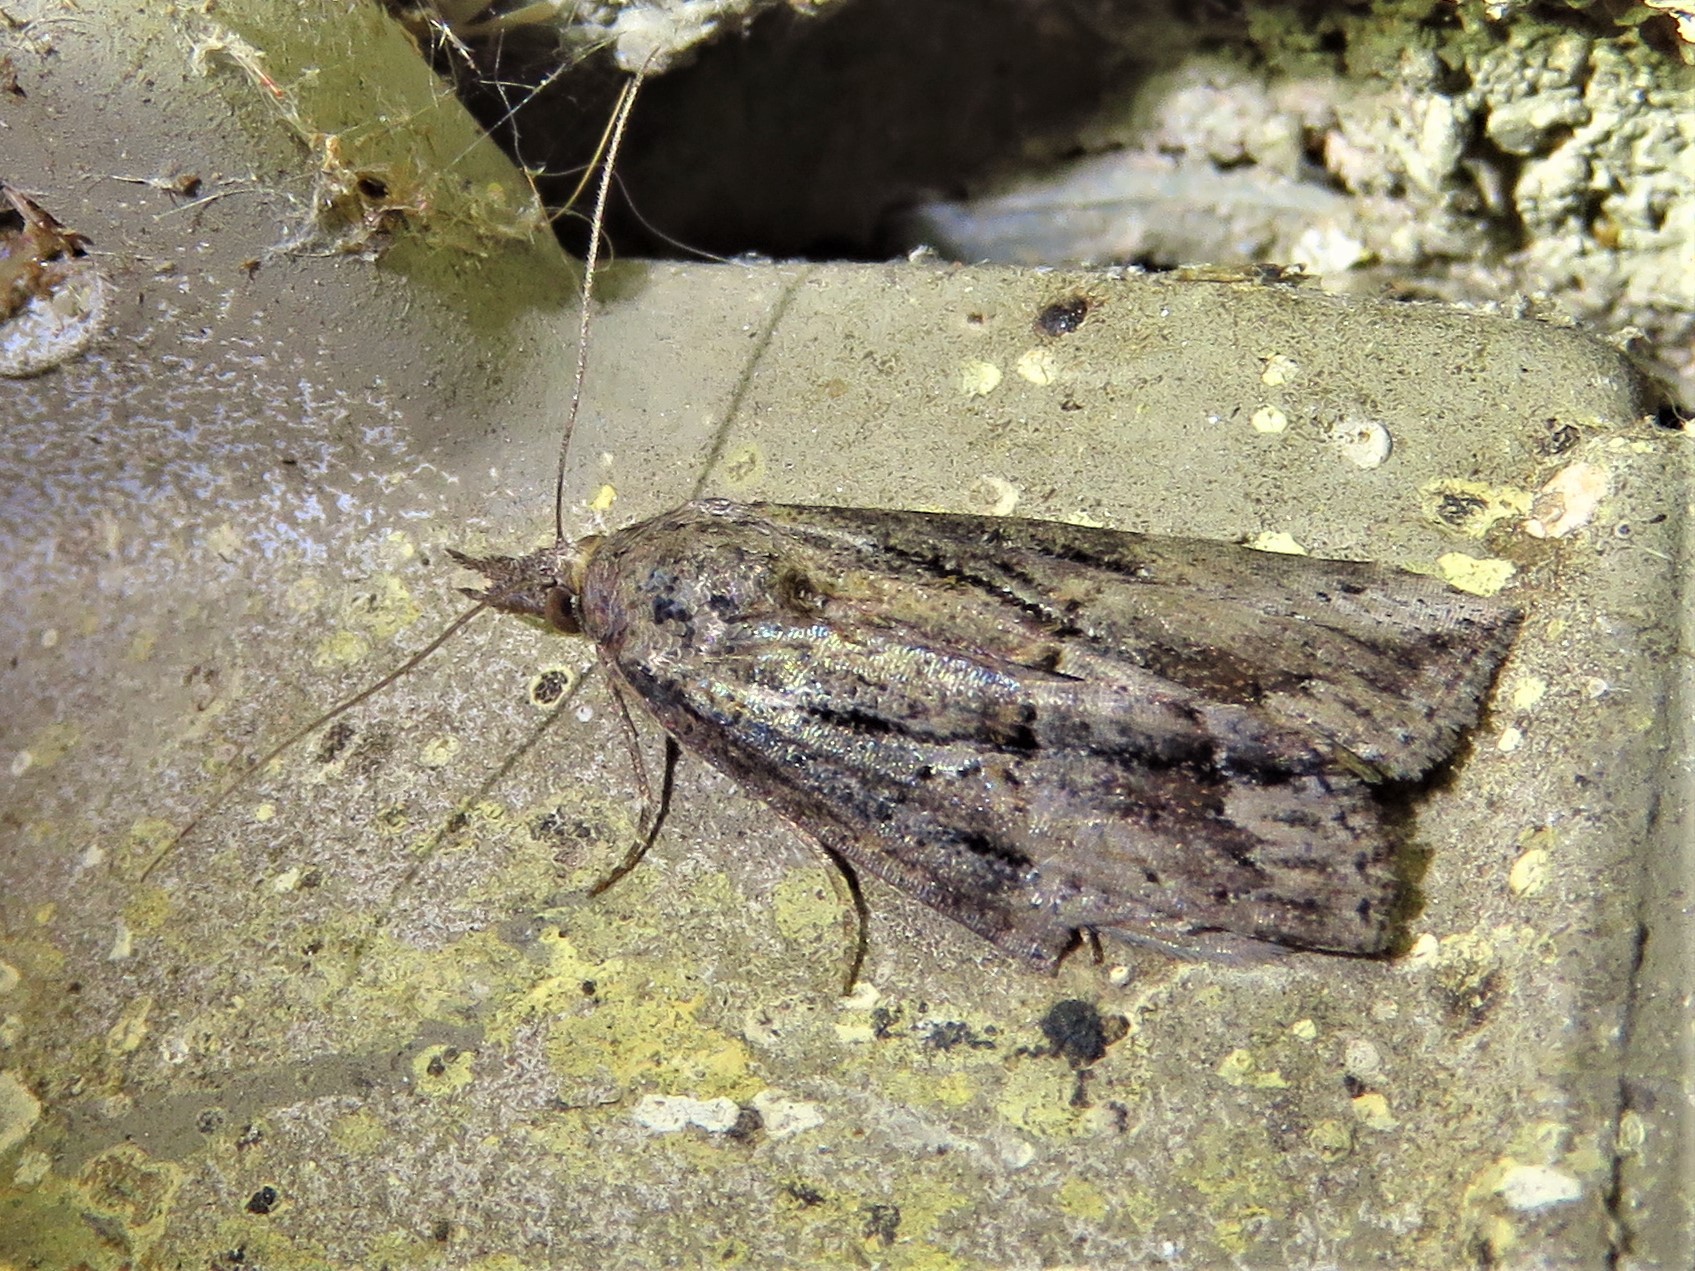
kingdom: Animalia
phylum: Arthropoda
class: Insecta
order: Lepidoptera
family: Erebidae
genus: Hypena
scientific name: Hypena scabra
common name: Green cloverworm
